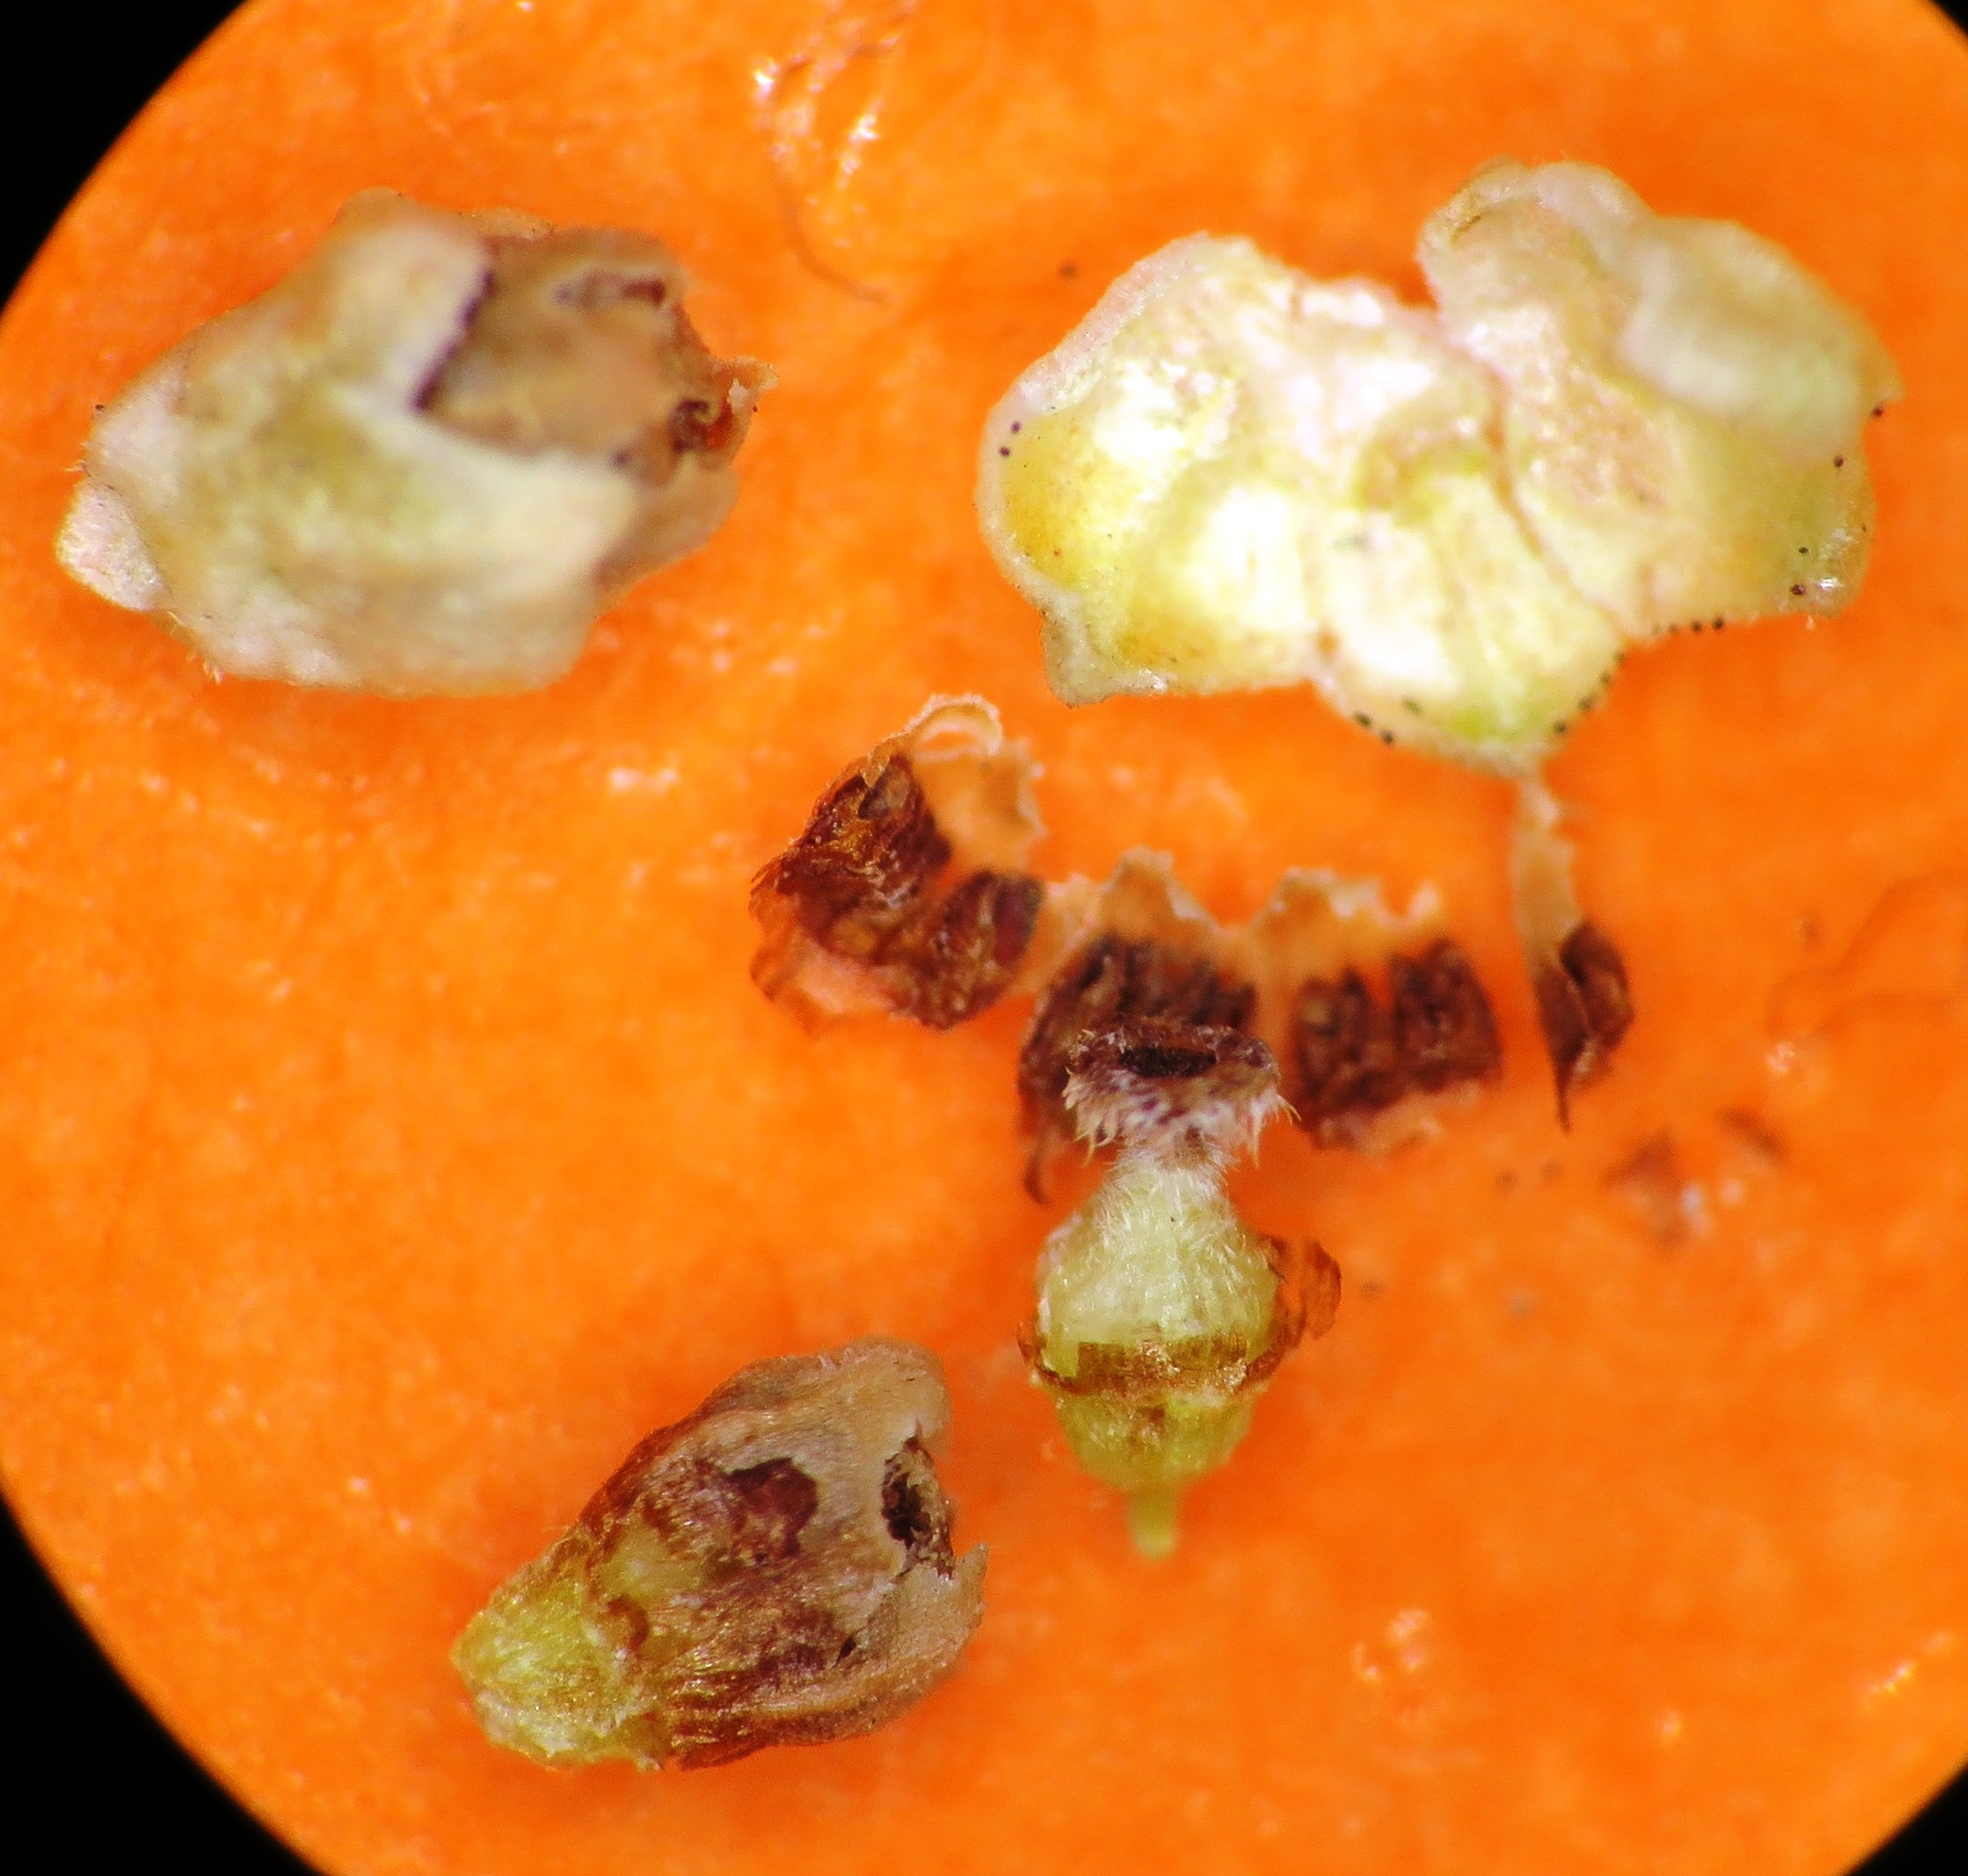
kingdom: Plantae
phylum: Tracheophyta
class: Magnoliopsida
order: Ericales
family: Ericaceae
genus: Erica
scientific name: Erica serrata
